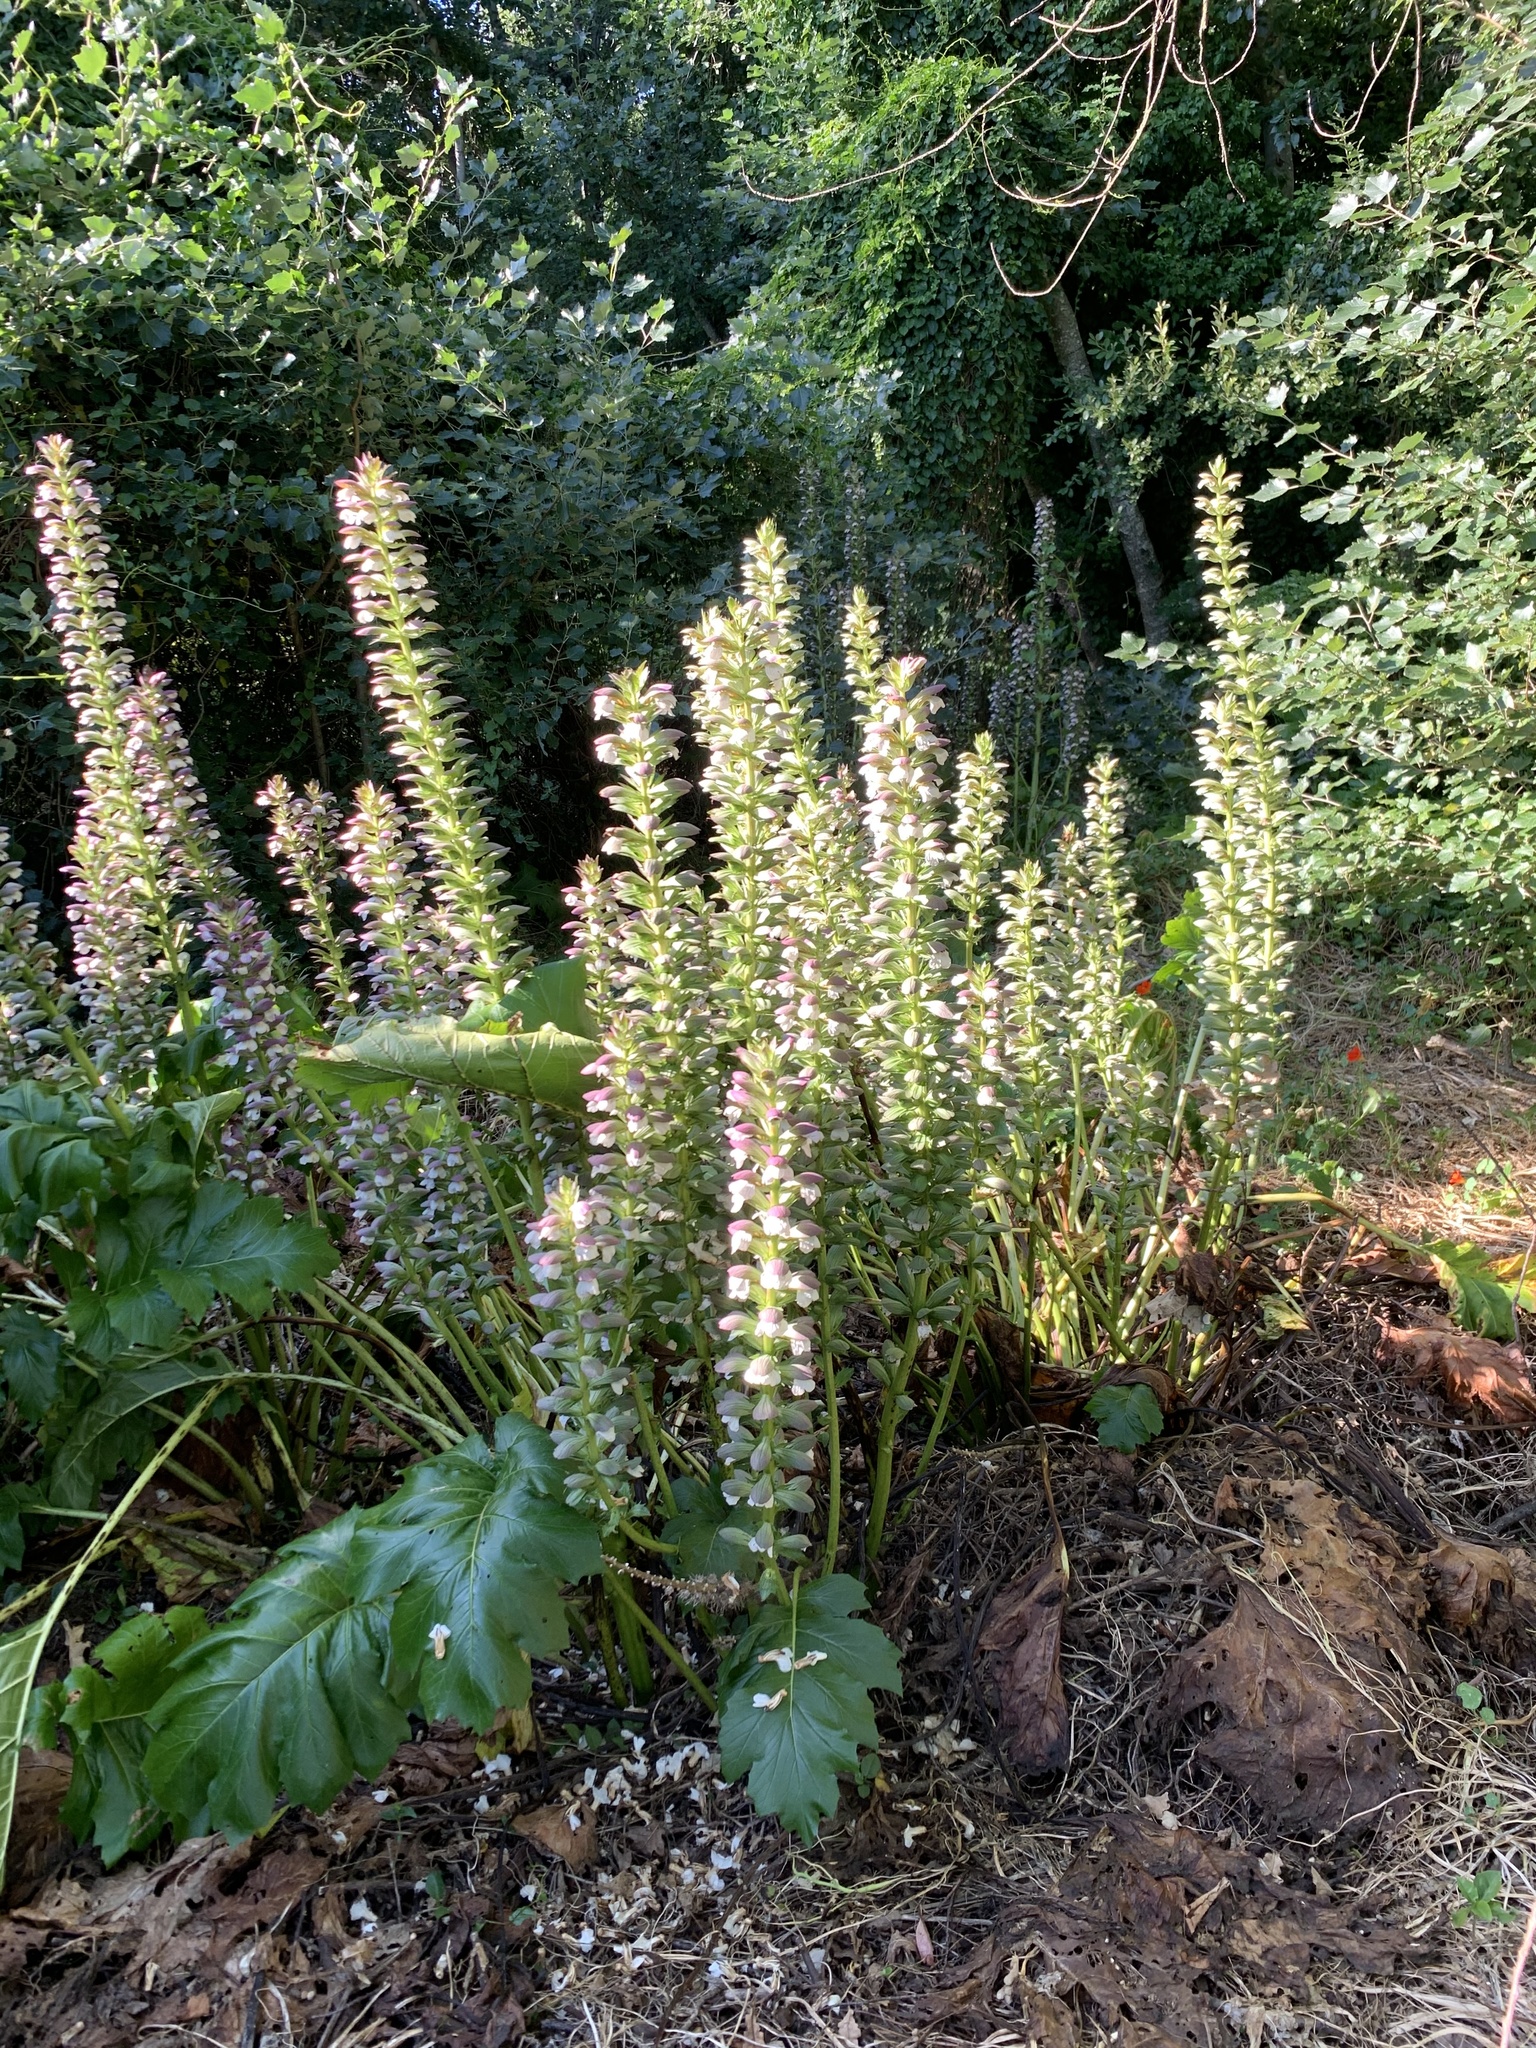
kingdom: Plantae
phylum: Tracheophyta
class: Magnoliopsida
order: Lamiales
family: Acanthaceae
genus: Acanthus
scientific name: Acanthus mollis
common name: Bear's-breech
